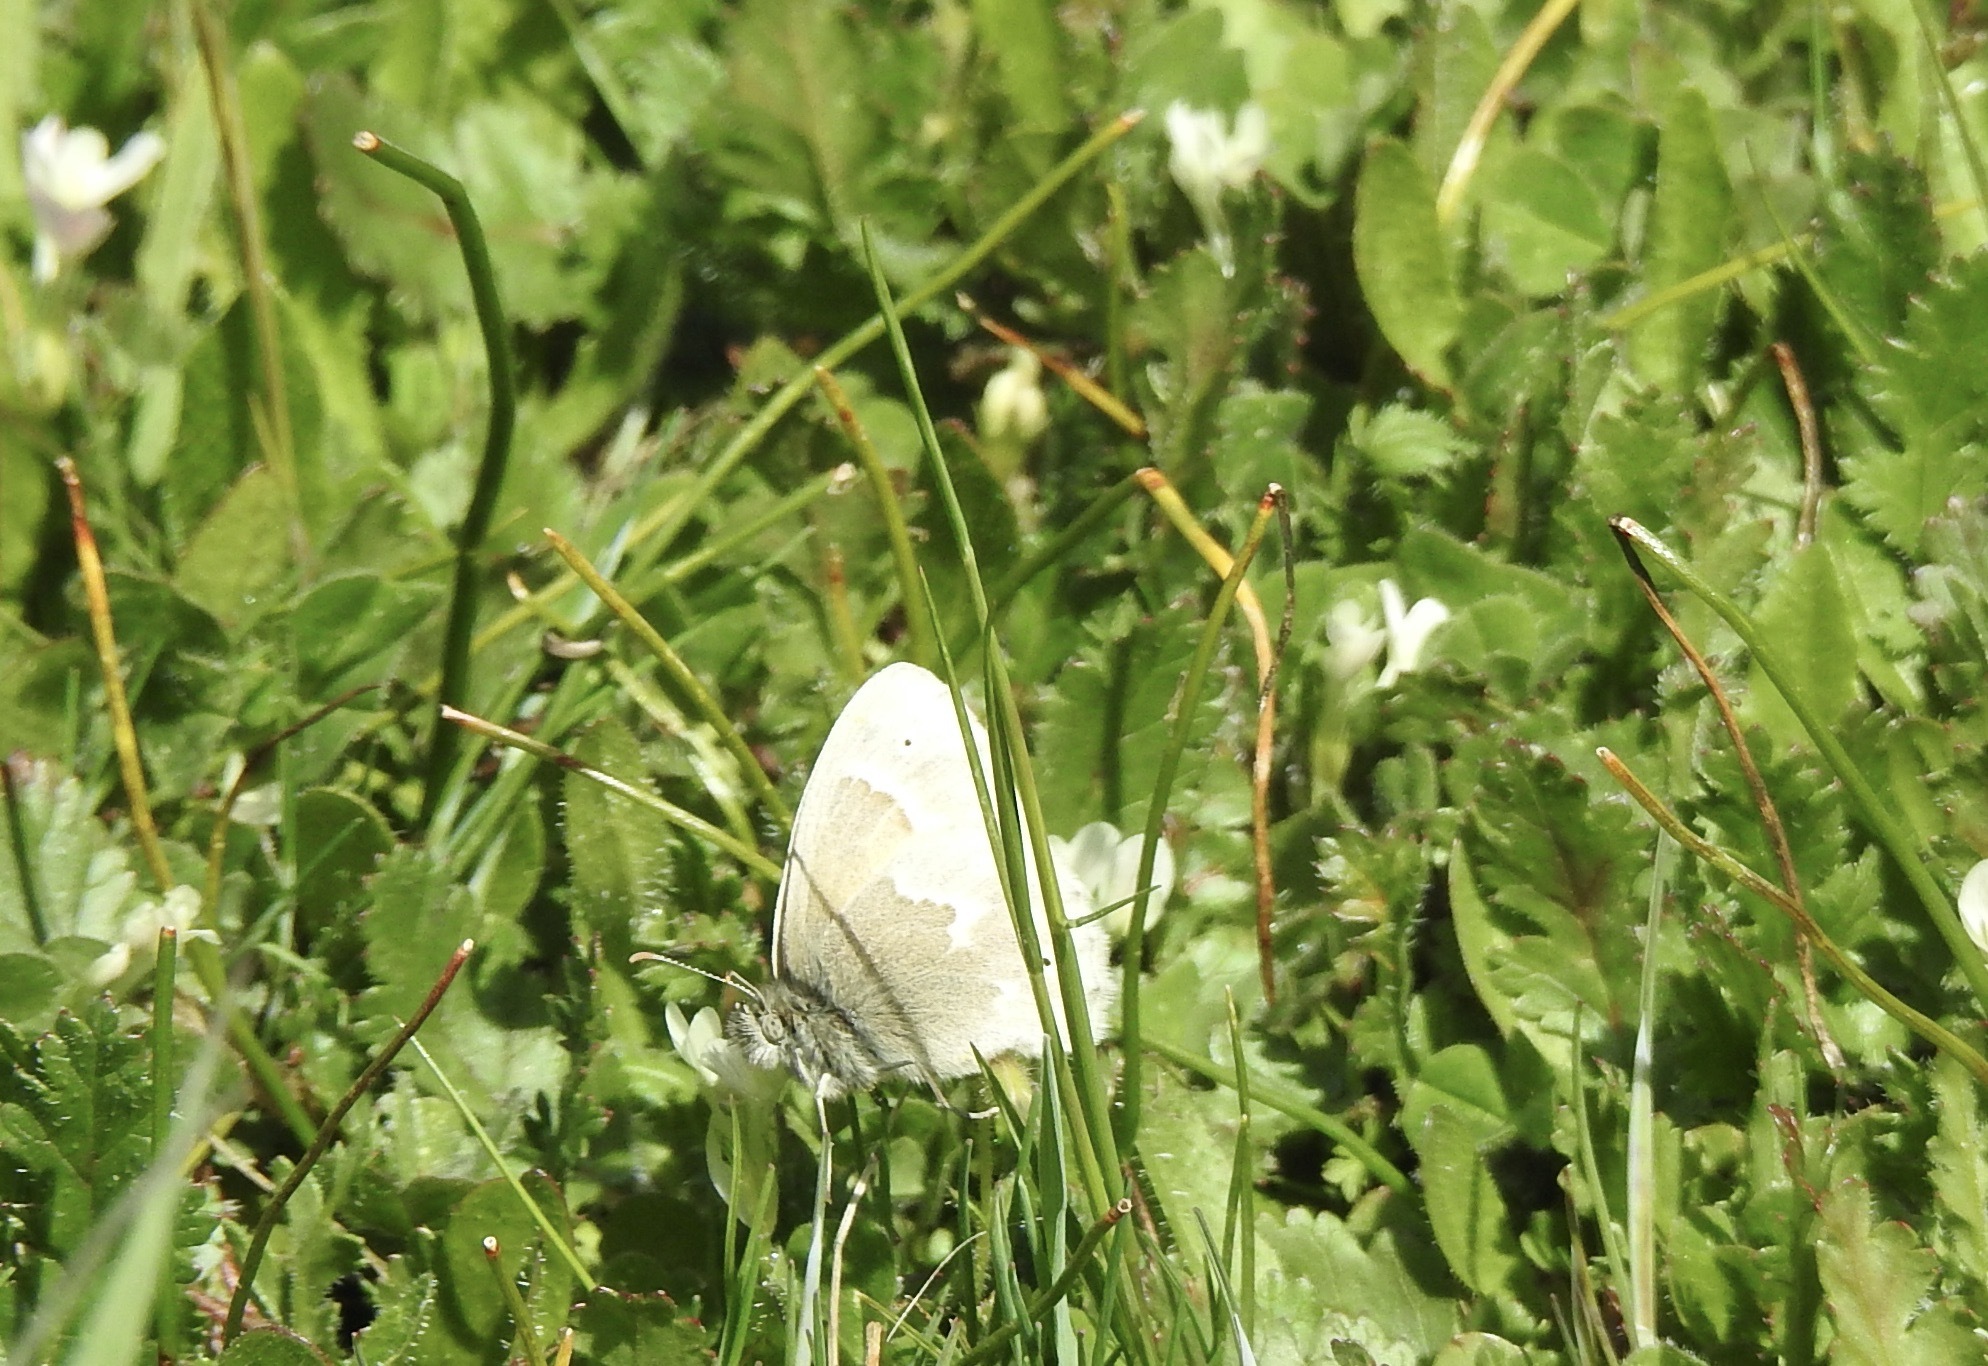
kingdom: Animalia
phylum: Arthropoda
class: Insecta
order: Lepidoptera
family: Nymphalidae
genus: Coenonympha
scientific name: Coenonympha california
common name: Common ringlet
